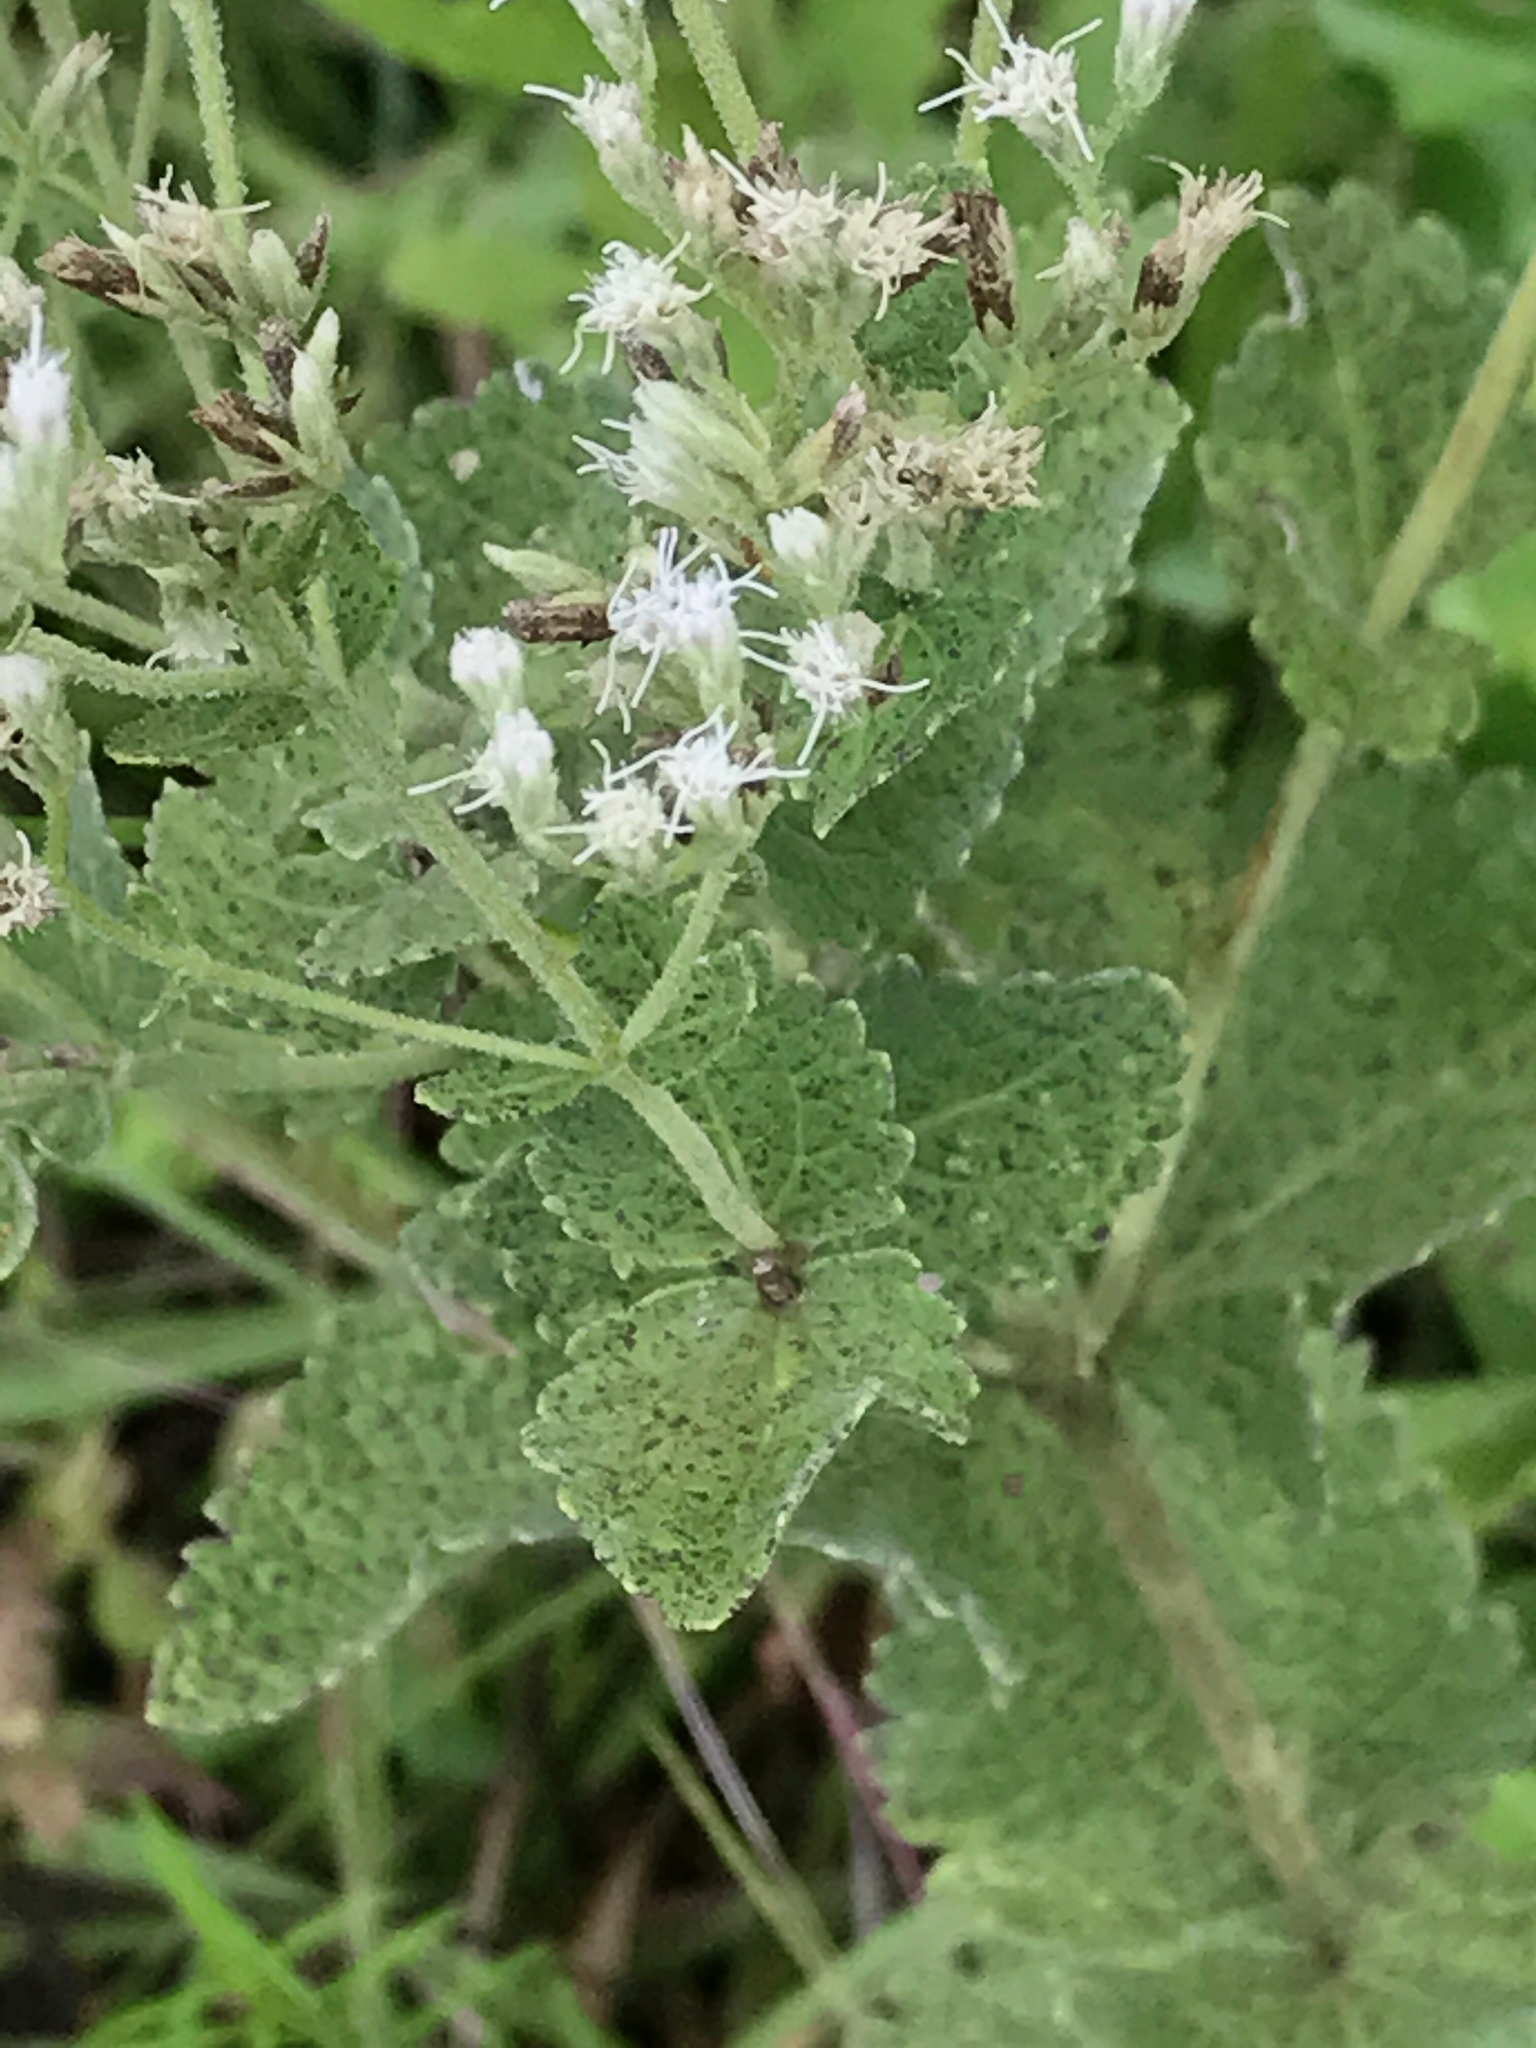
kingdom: Plantae
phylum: Tracheophyta
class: Magnoliopsida
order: Asterales
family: Asteraceae
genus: Eupatorium
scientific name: Eupatorium rotundifolium
